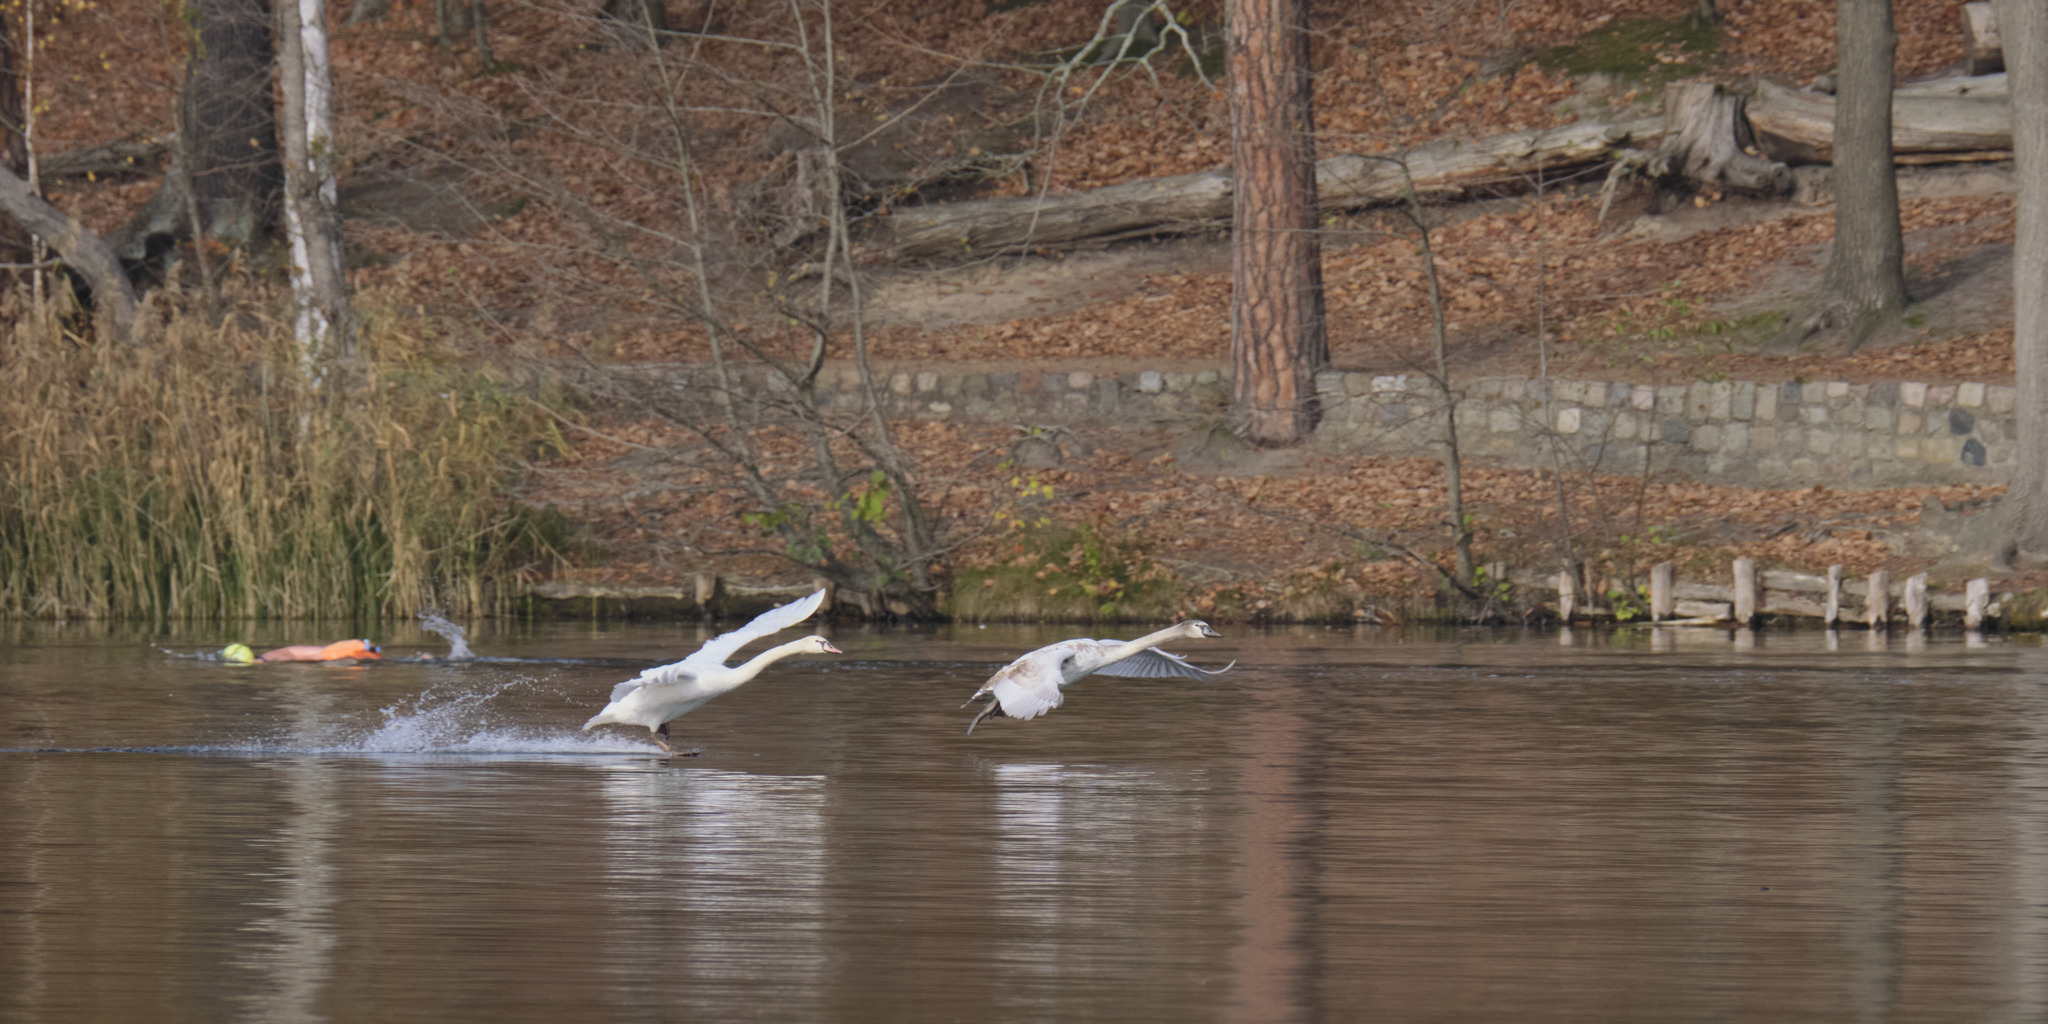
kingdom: Animalia
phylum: Chordata
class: Aves
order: Anseriformes
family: Anatidae
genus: Cygnus
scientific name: Cygnus olor
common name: Mute swan
